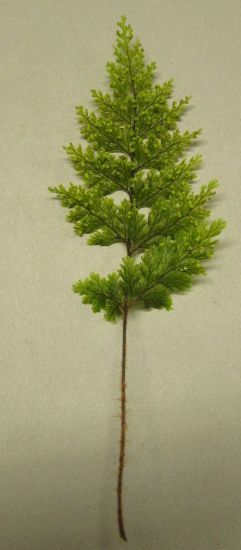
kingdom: Plantae
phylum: Tracheophyta
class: Polypodiopsida
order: Hymenophyllales
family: Hymenophyllaceae
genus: Hymenophyllum
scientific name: Hymenophyllum scabrum
